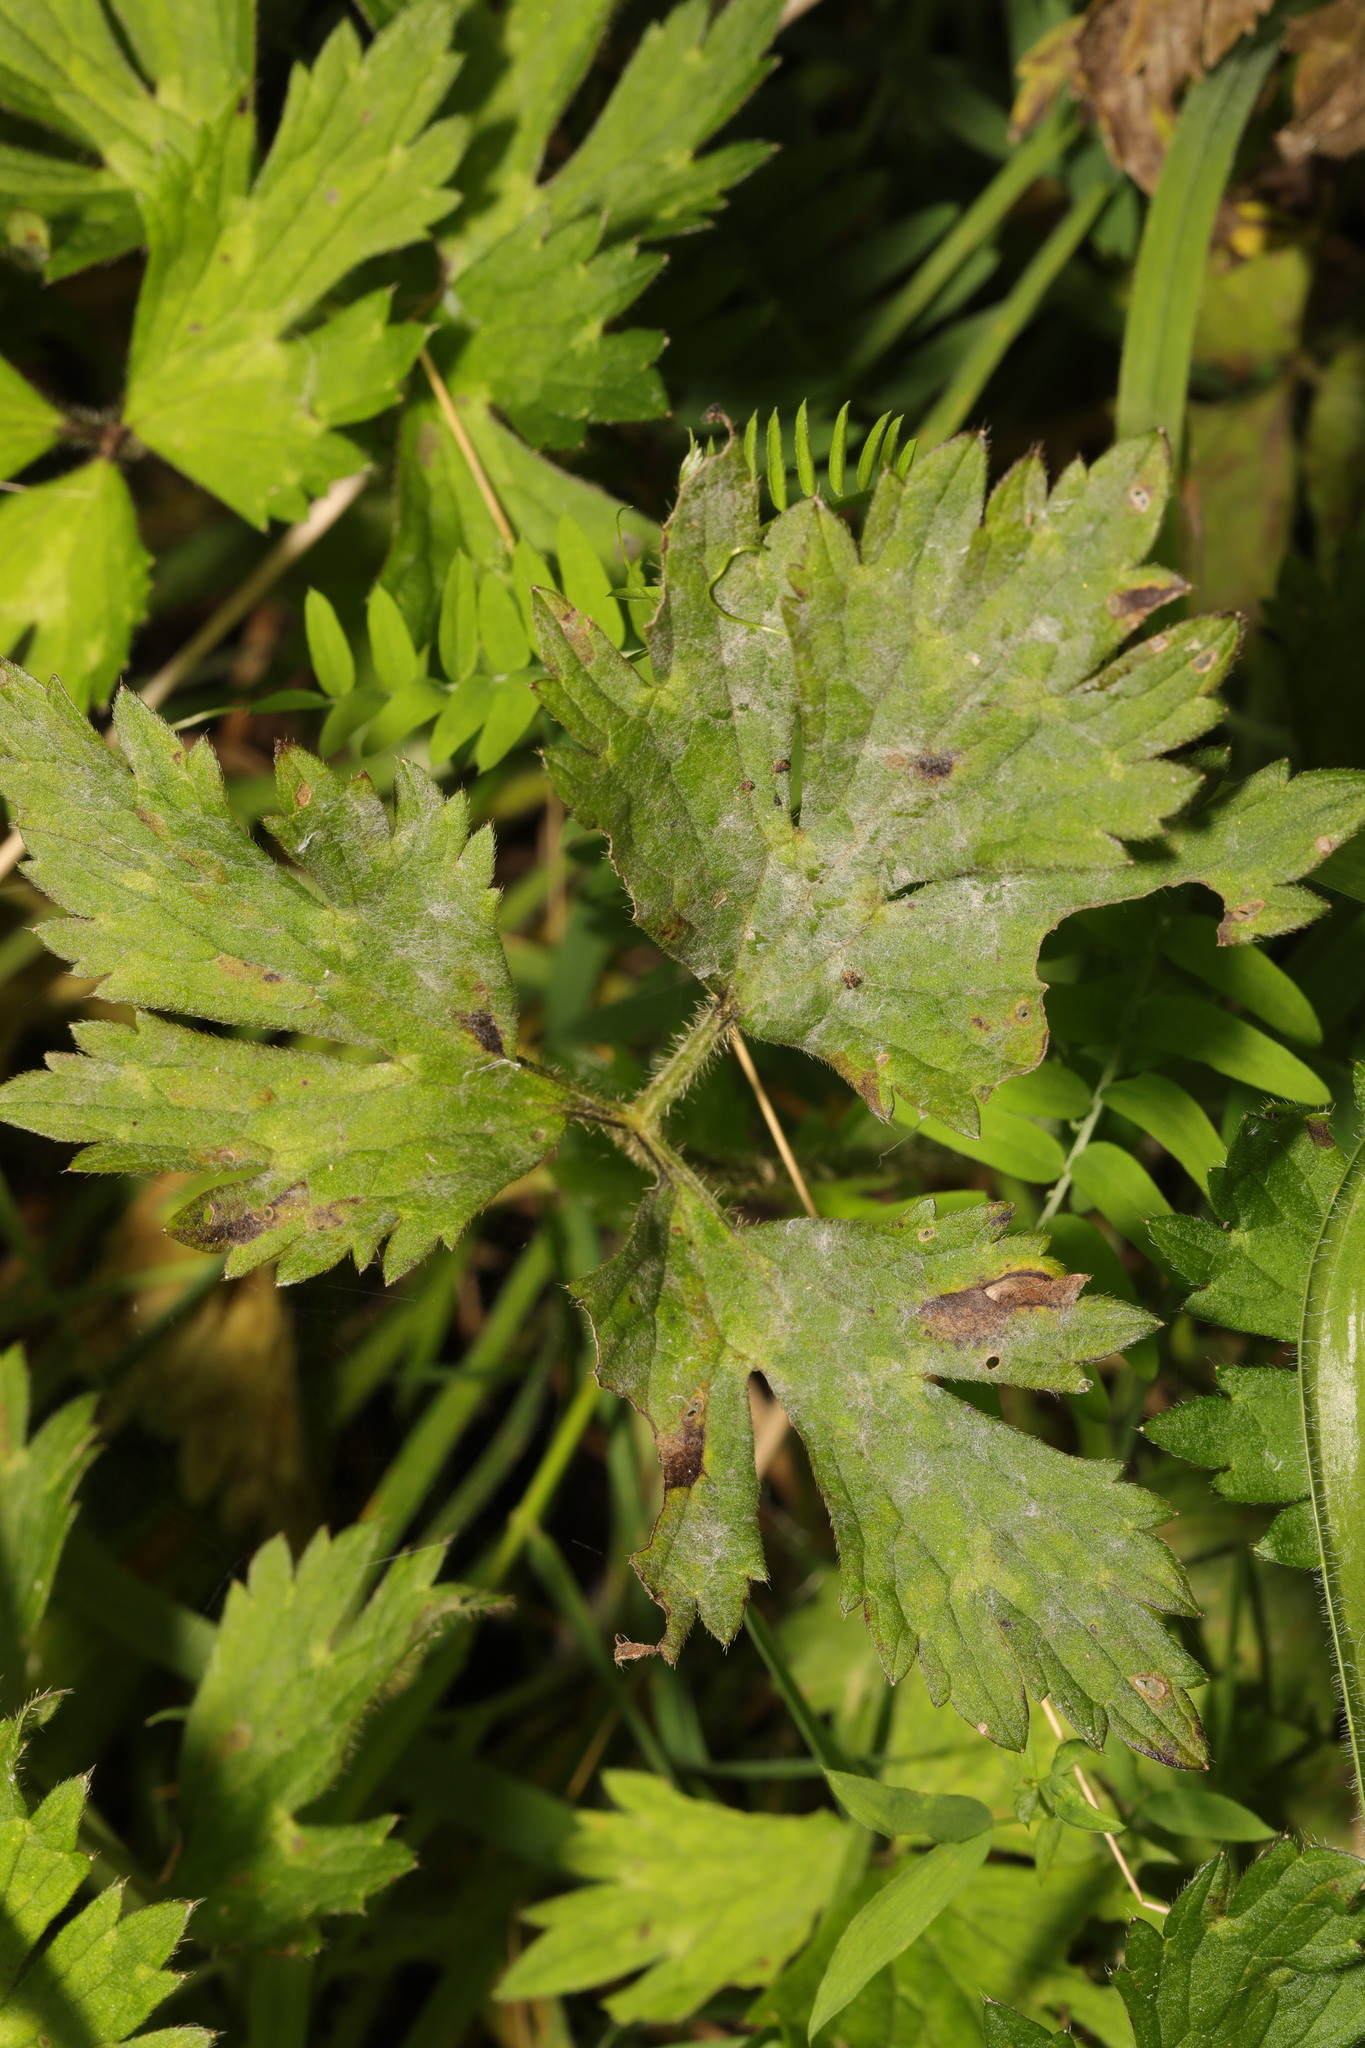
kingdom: Fungi
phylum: Ascomycota
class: Leotiomycetes
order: Helotiales
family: Erysiphaceae
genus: Erysiphe
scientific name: Erysiphe aquilegiae
